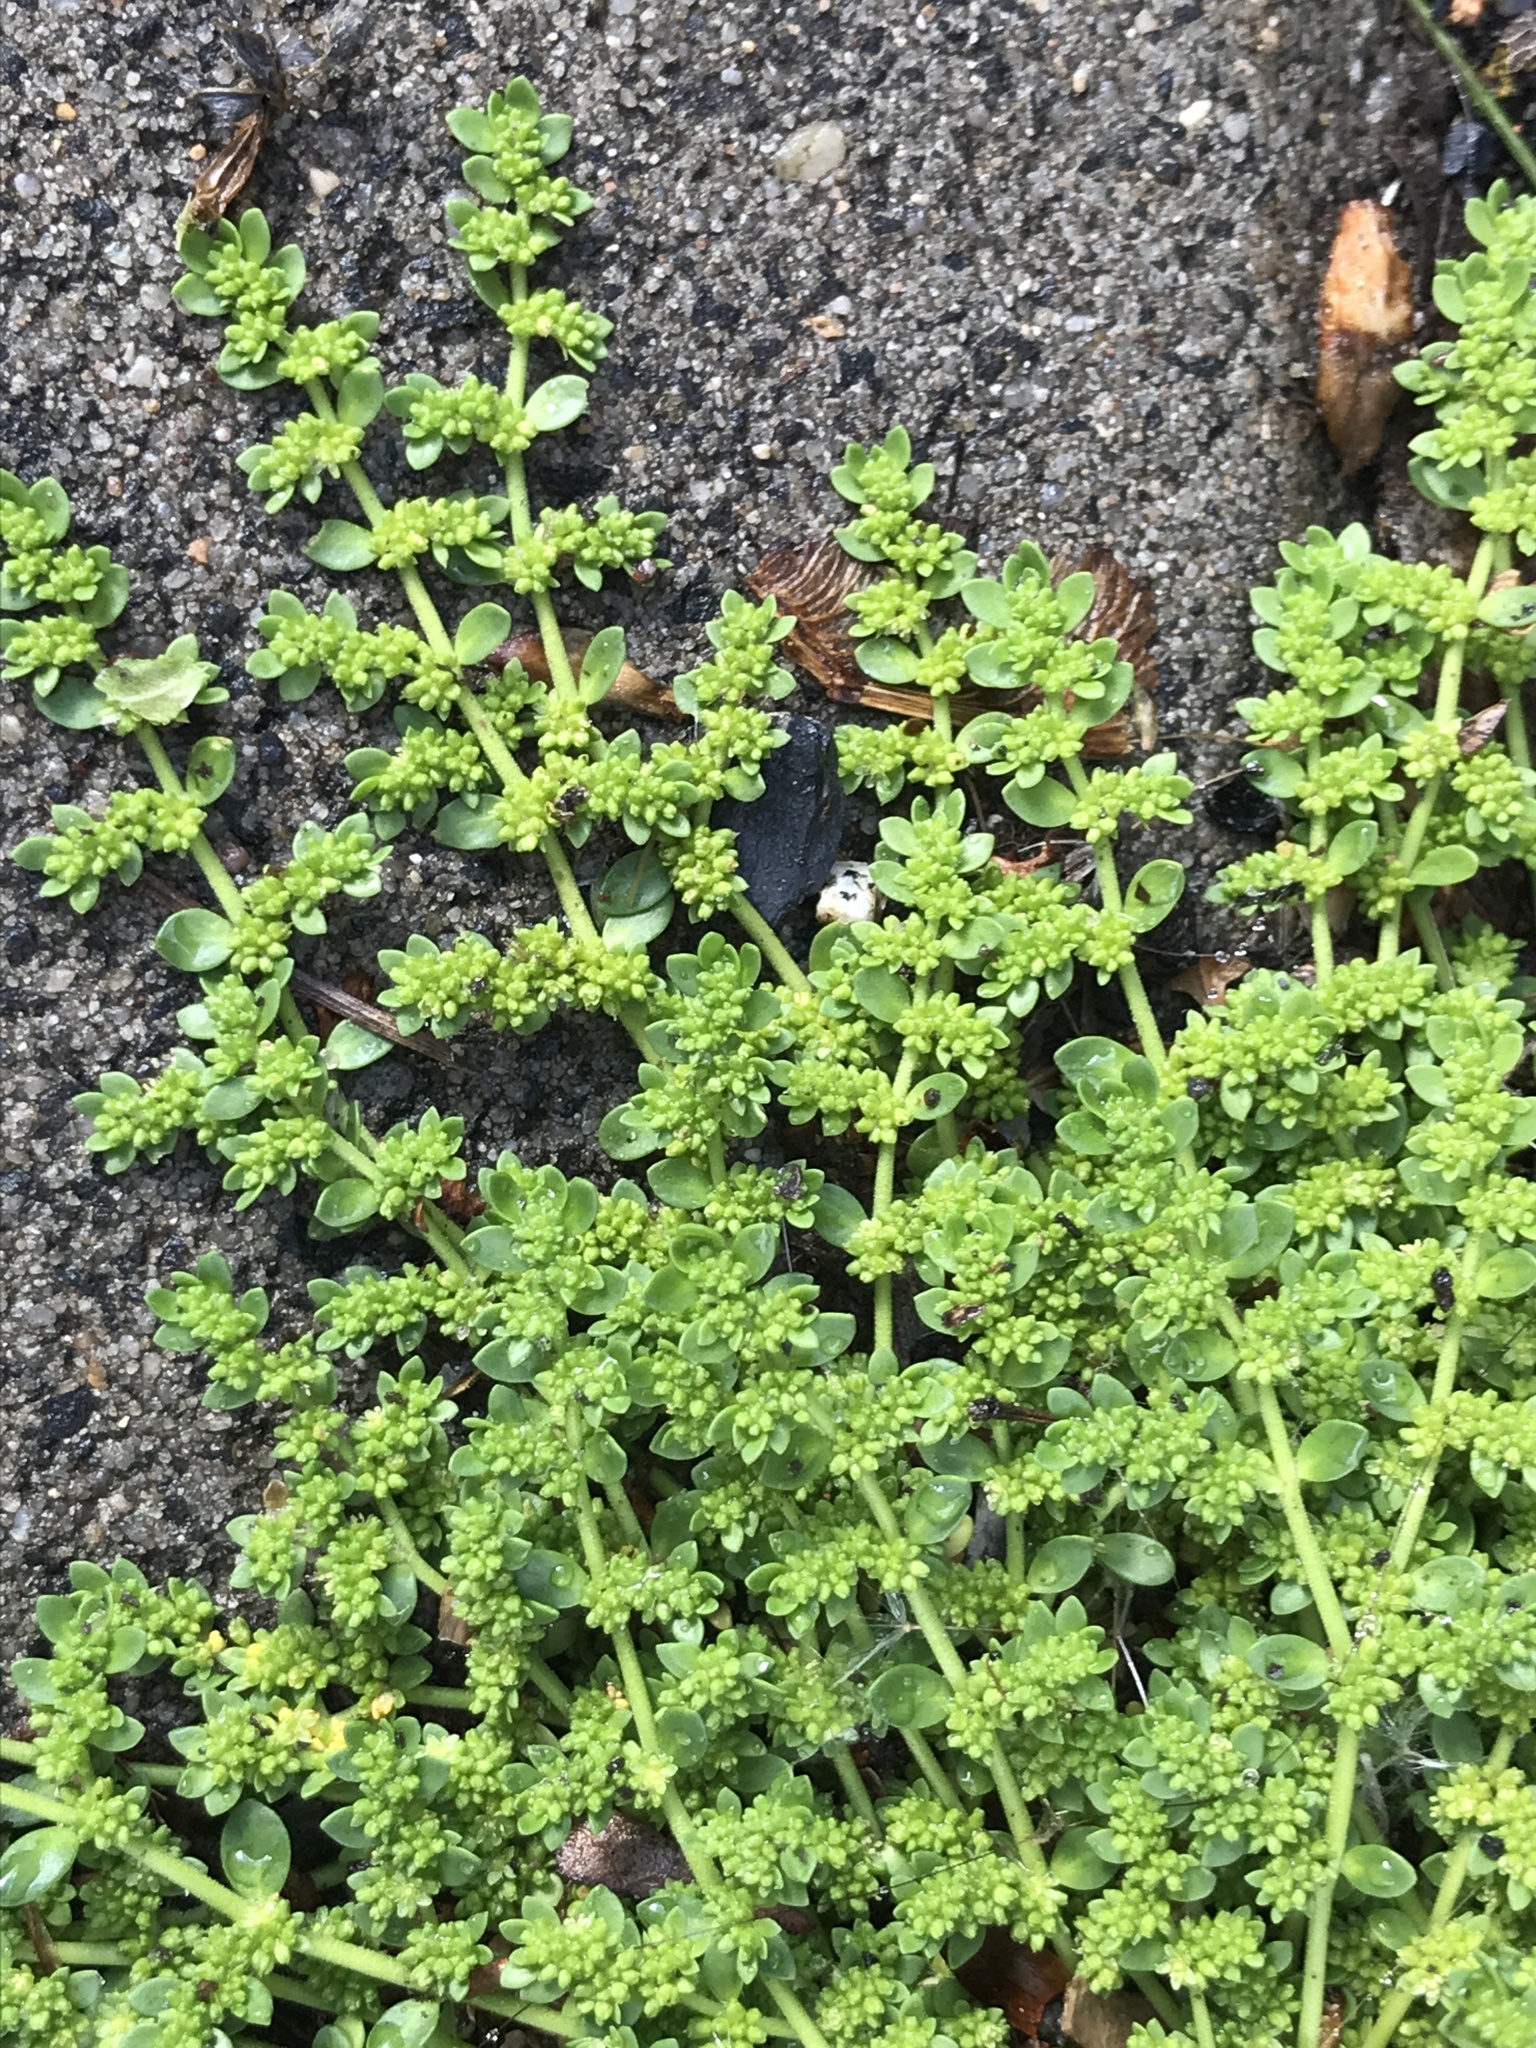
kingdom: Plantae
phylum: Tracheophyta
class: Magnoliopsida
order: Caryophyllales
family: Caryophyllaceae
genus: Herniaria
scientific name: Herniaria glabra
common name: Smooth rupturewort
